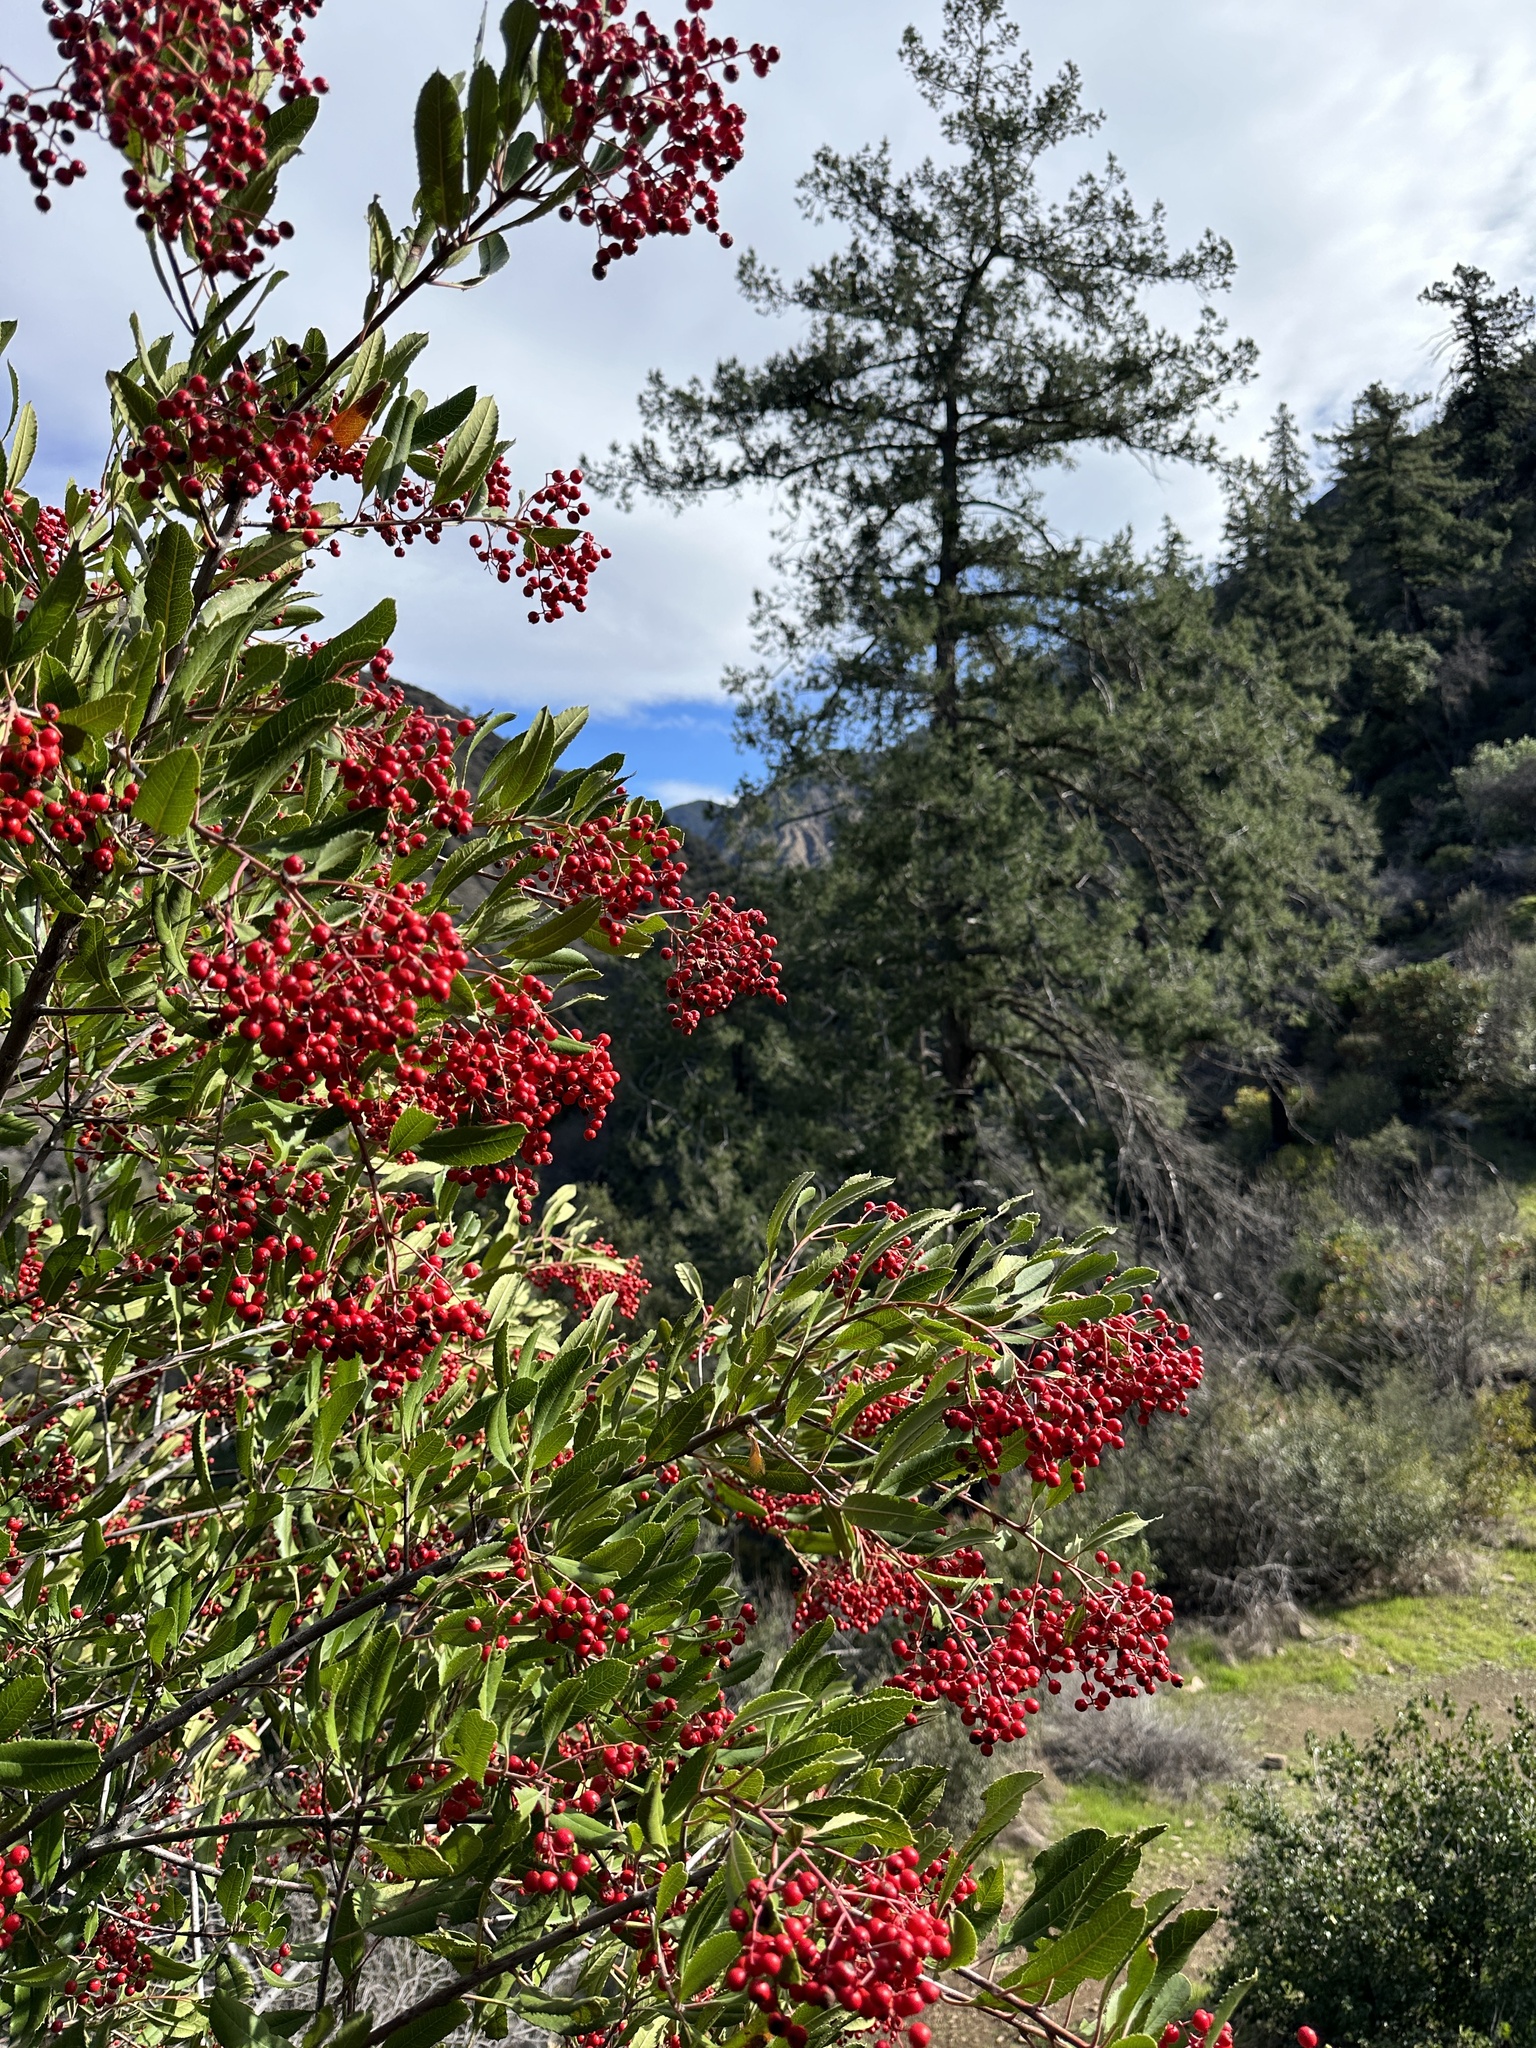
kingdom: Plantae
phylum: Tracheophyta
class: Magnoliopsida
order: Rosales
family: Rosaceae
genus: Heteromeles
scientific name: Heteromeles arbutifolia
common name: California-holly
